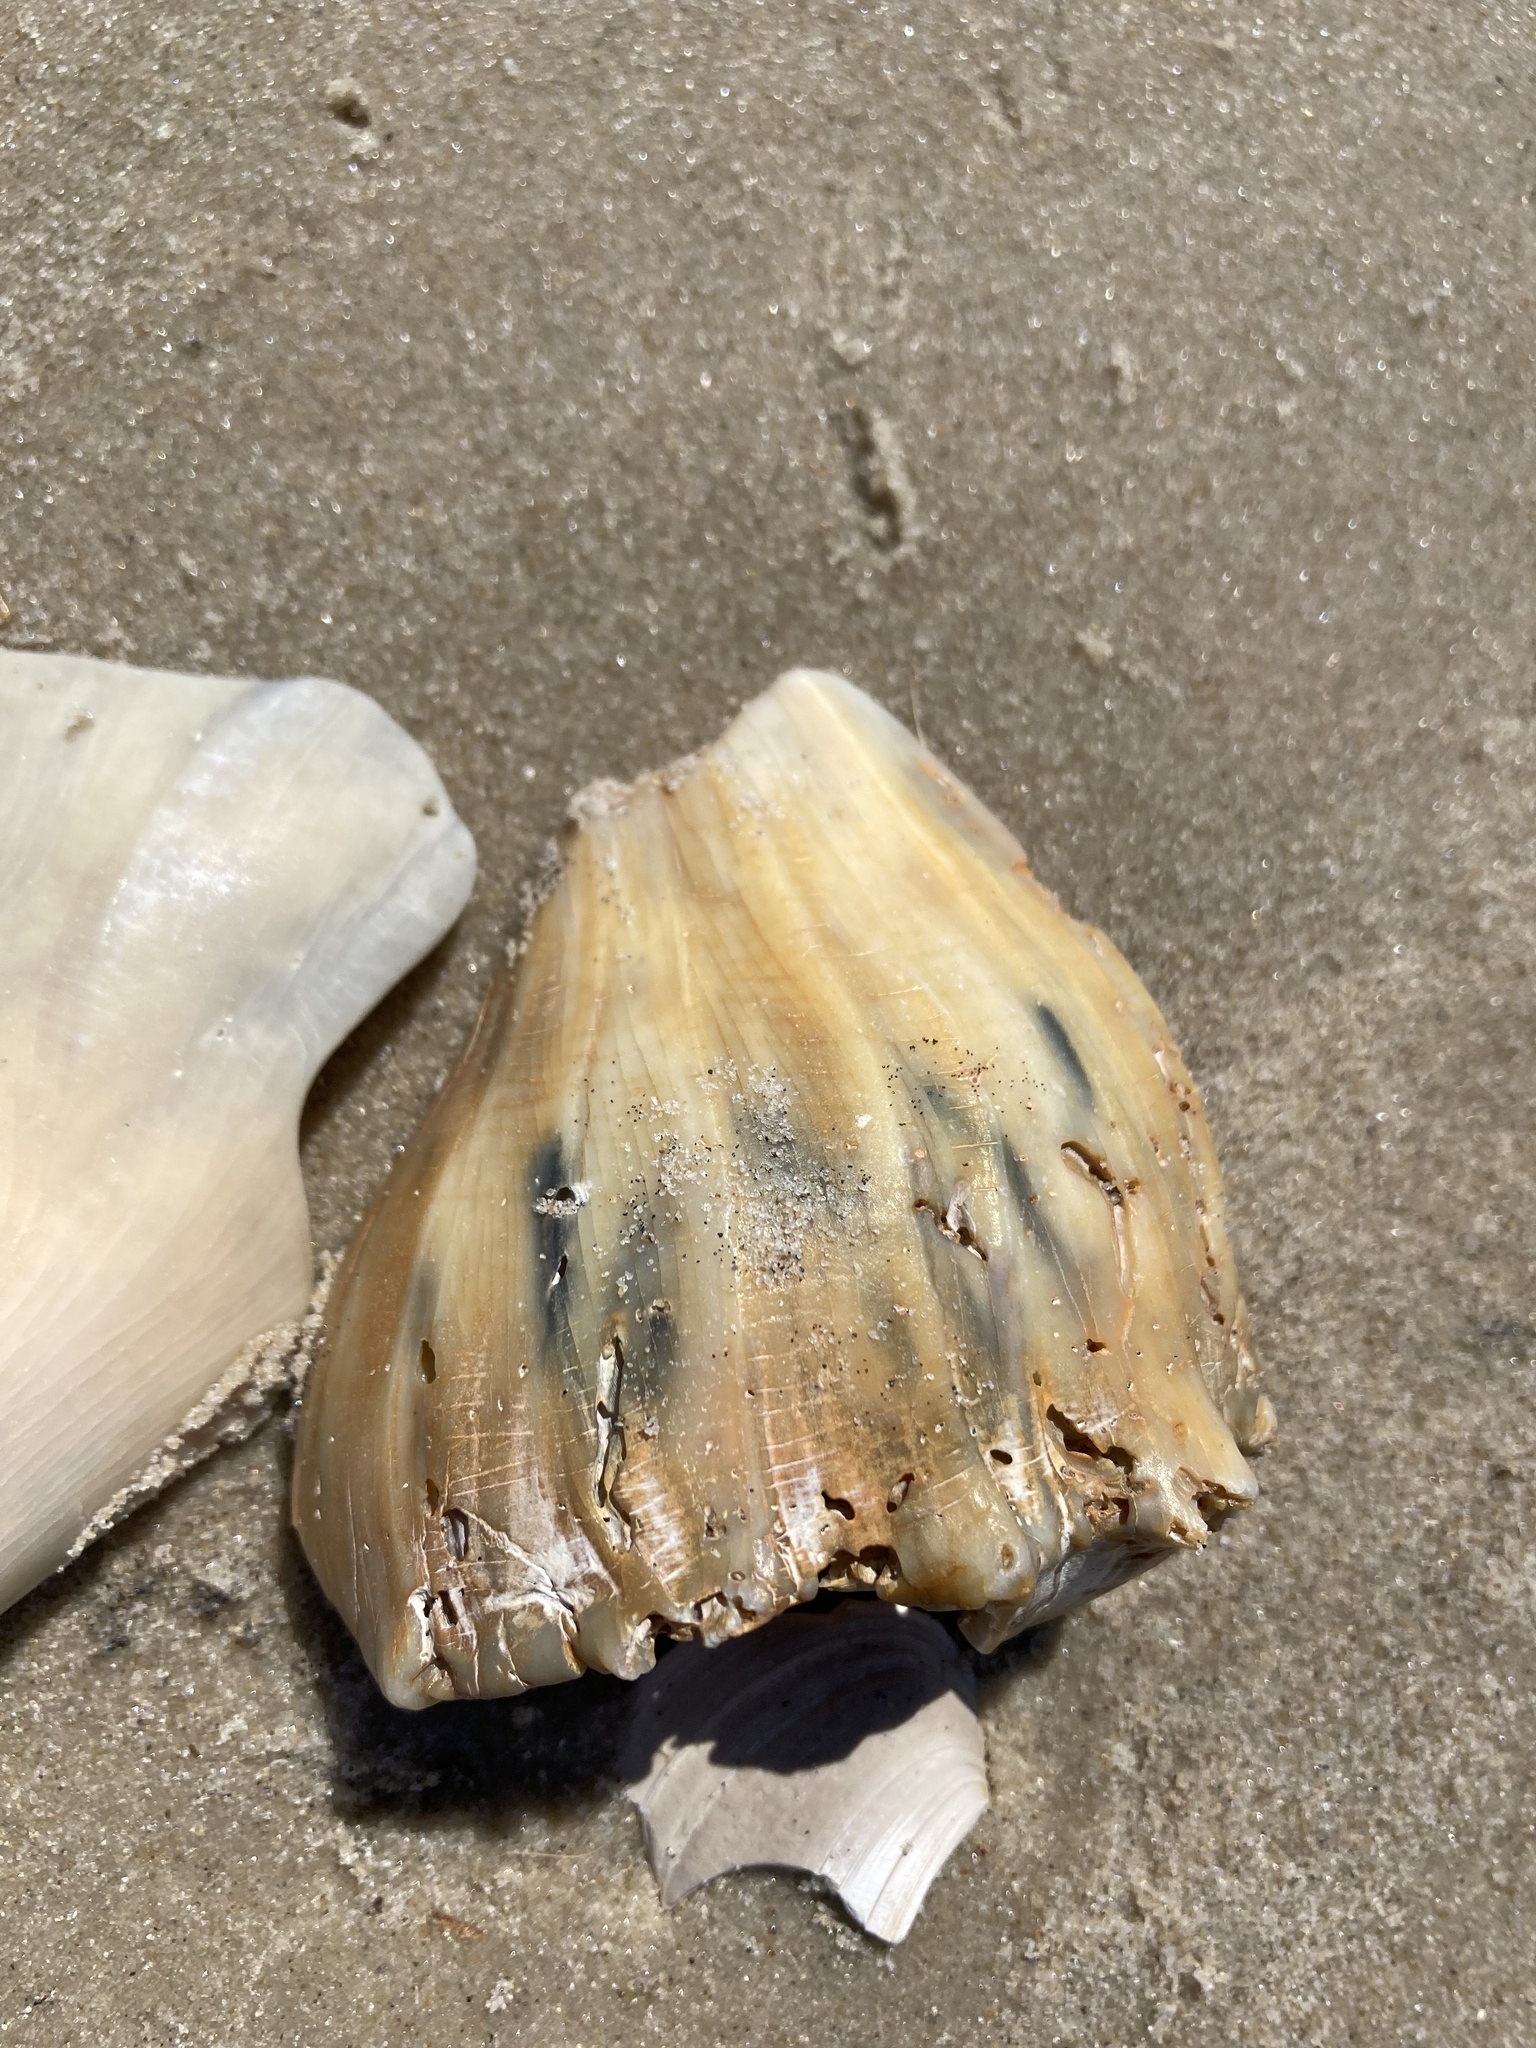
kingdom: Animalia
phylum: Mollusca
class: Gastropoda
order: Neogastropoda
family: Busyconidae
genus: Busycon
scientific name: Busycon carica
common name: Knobbed whelk
